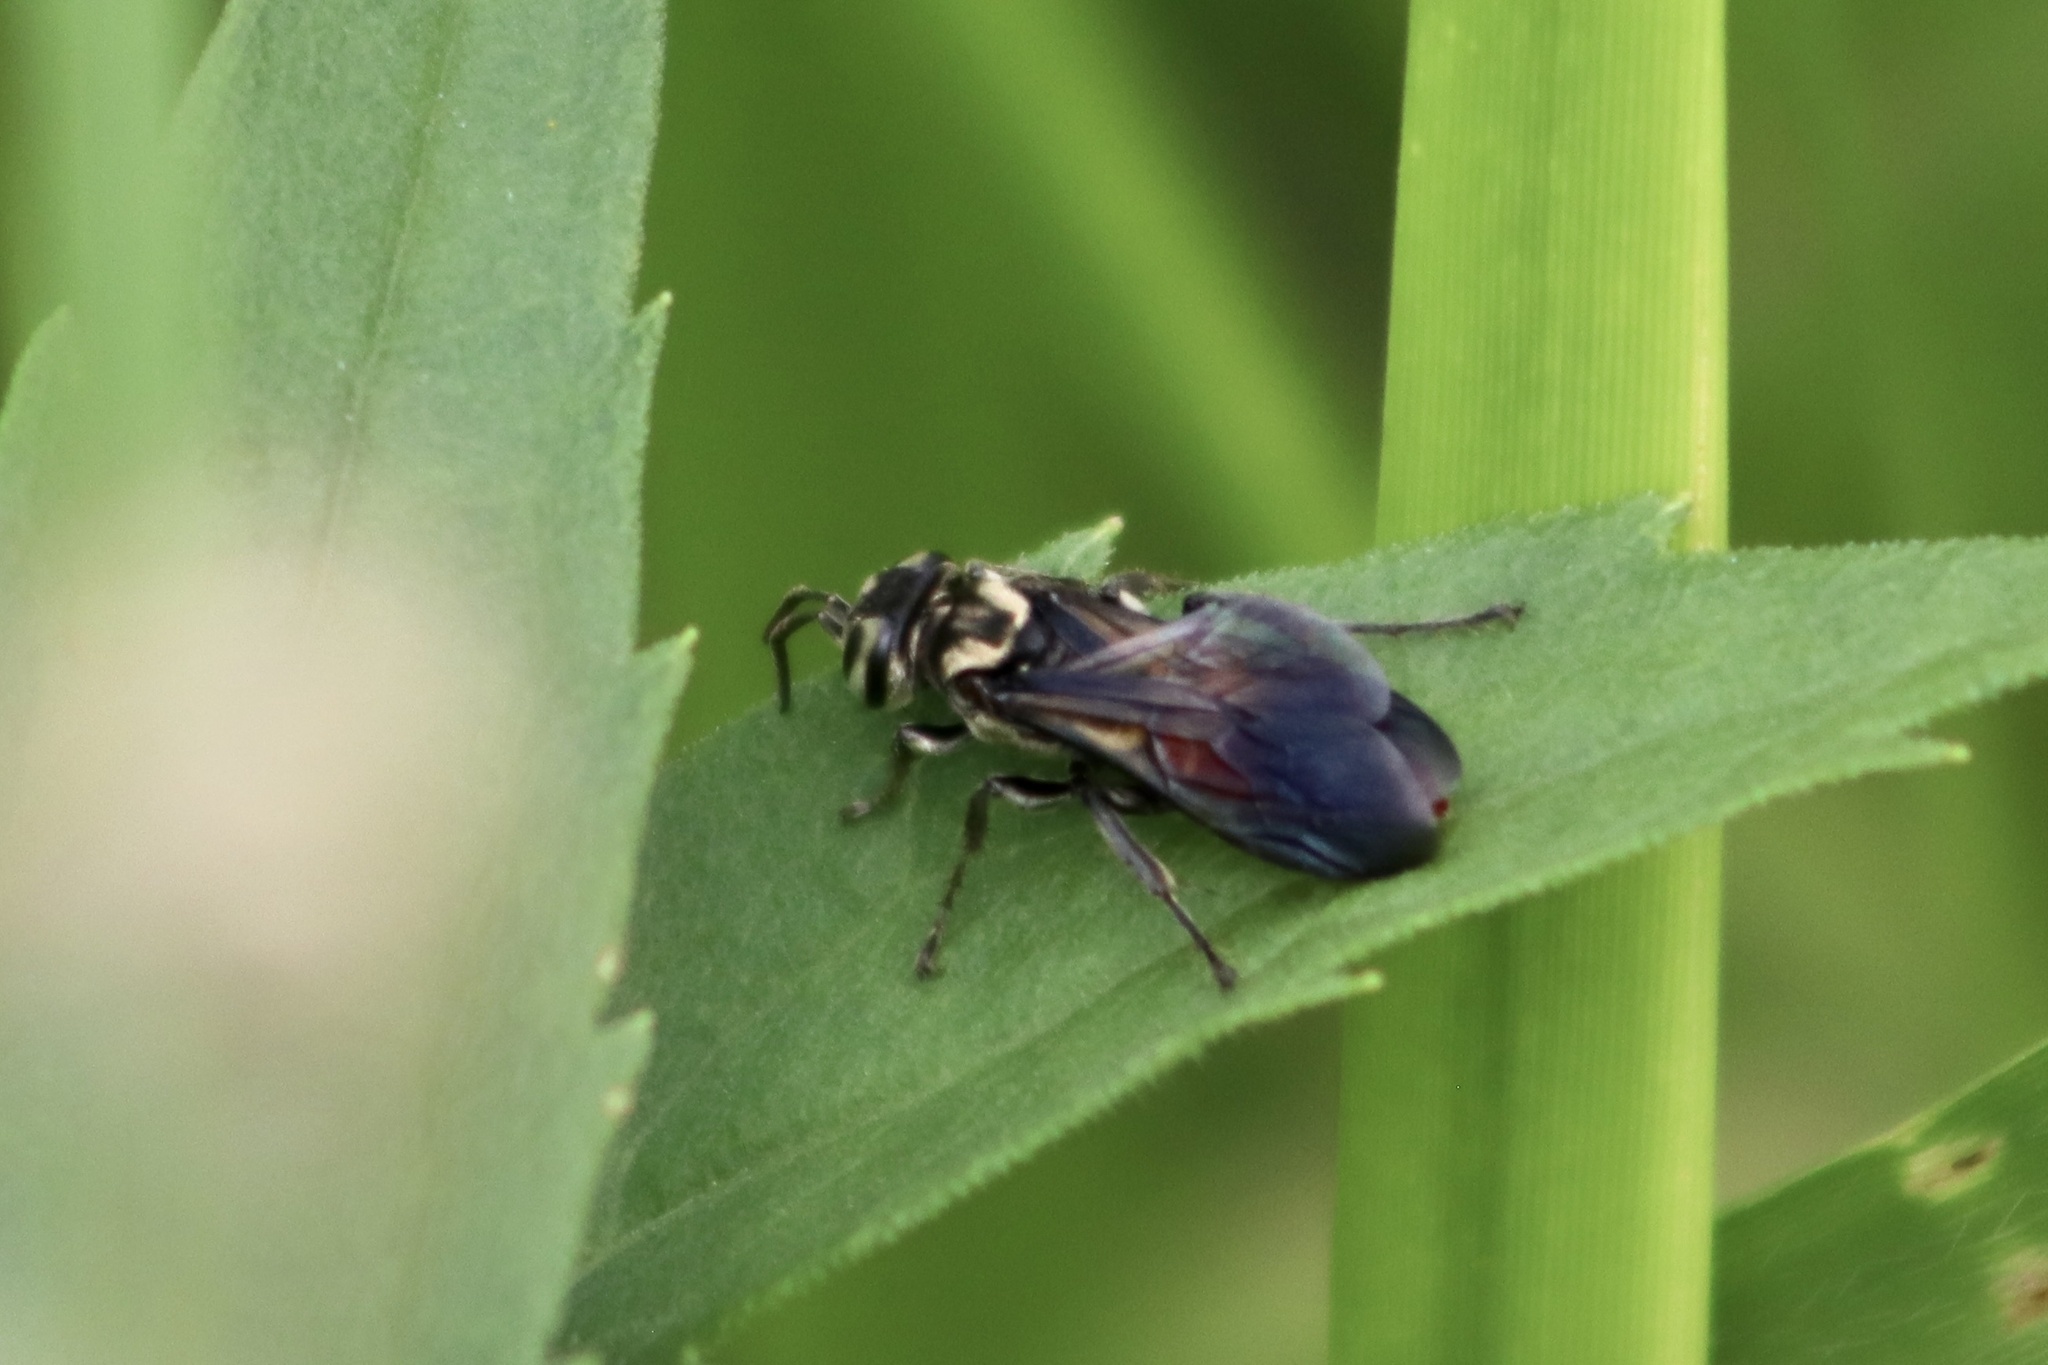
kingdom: Animalia
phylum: Arthropoda
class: Insecta
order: Hymenoptera
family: Crabronidae
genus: Larra
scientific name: Larra bicolor
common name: Wasp
